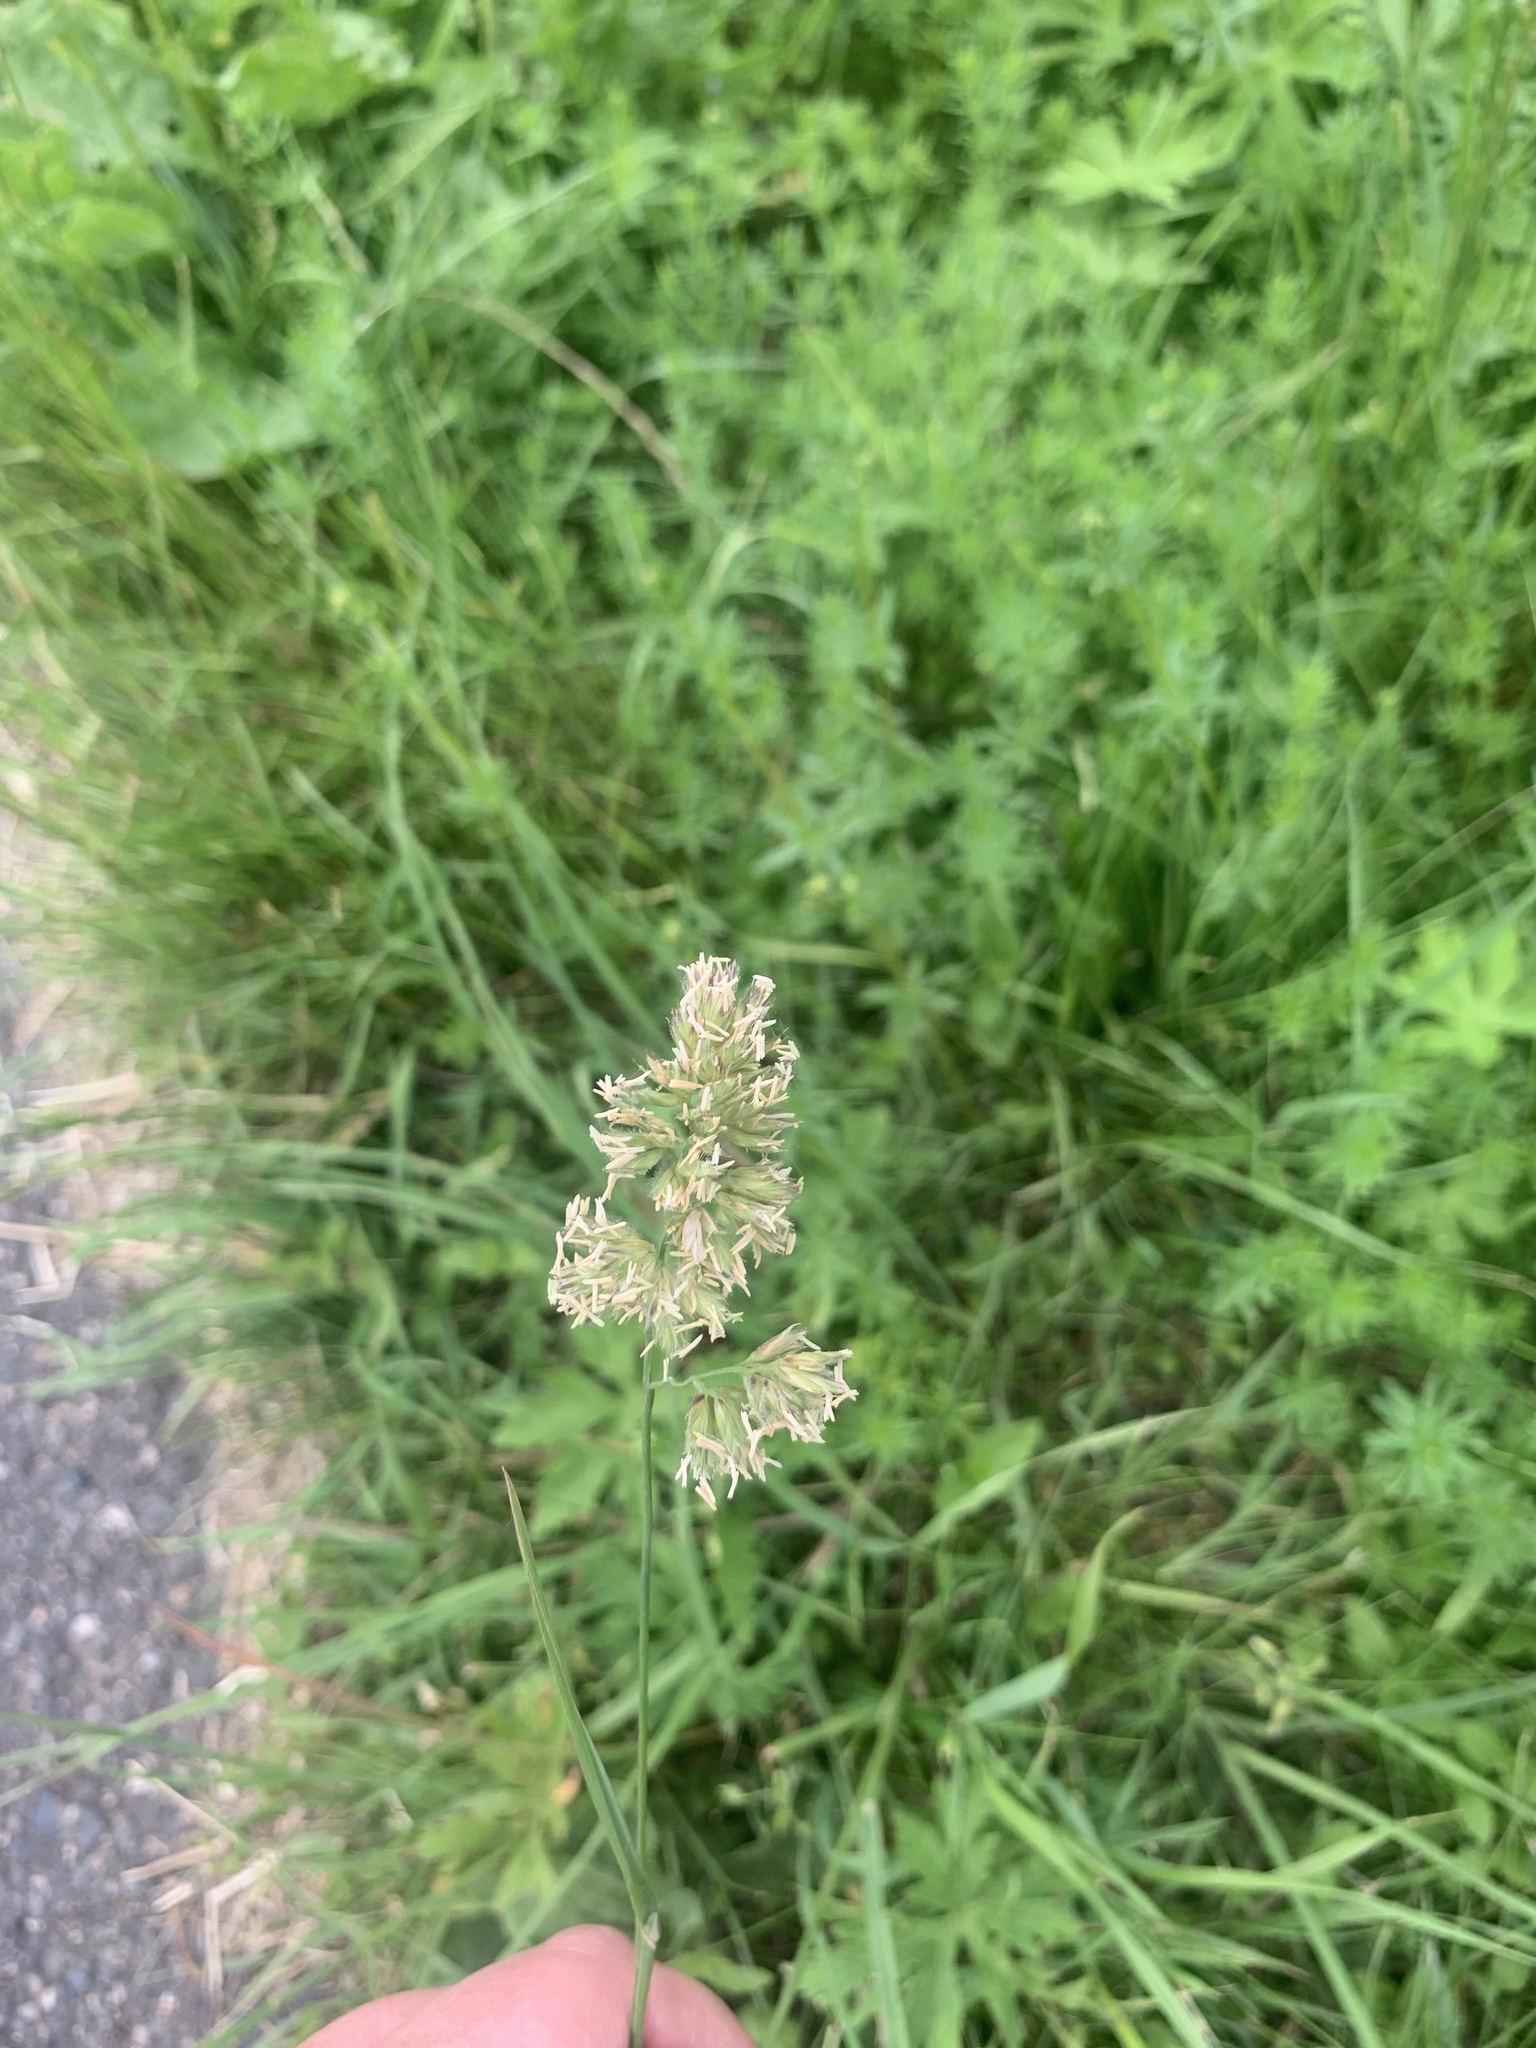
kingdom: Plantae
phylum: Tracheophyta
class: Liliopsida
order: Poales
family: Poaceae
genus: Dactylis
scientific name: Dactylis glomerata
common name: Orchardgrass
